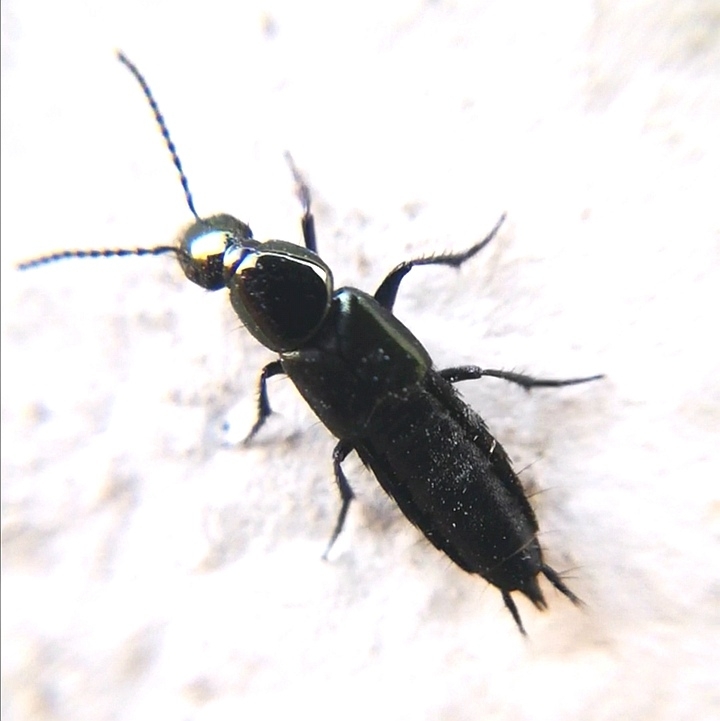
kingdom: Animalia
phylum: Arthropoda
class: Insecta
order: Coleoptera
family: Staphylinidae
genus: Philonthus
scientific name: Philonthus laminatus
